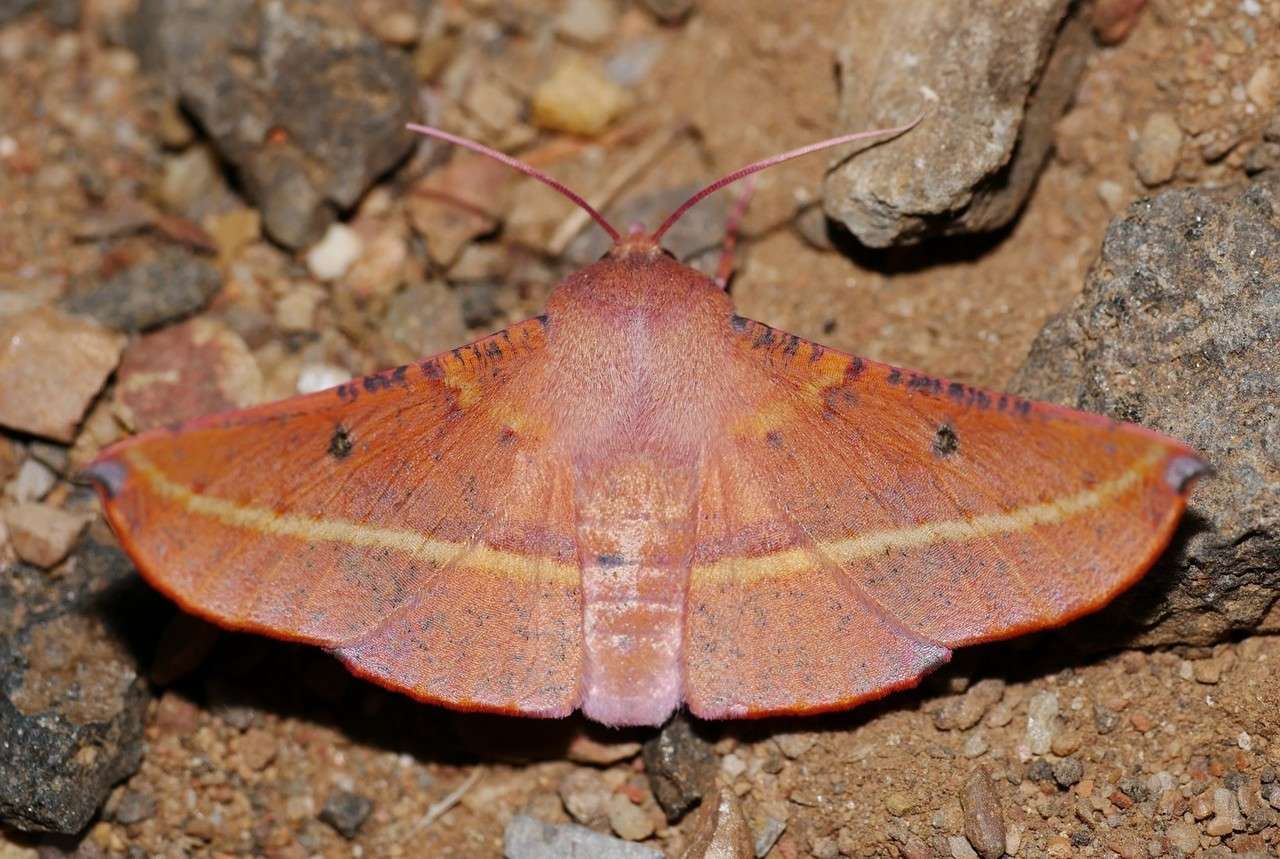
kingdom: Animalia
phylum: Arthropoda
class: Insecta
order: Lepidoptera
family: Geometridae
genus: Oenochroma
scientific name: Oenochroma vinaria
